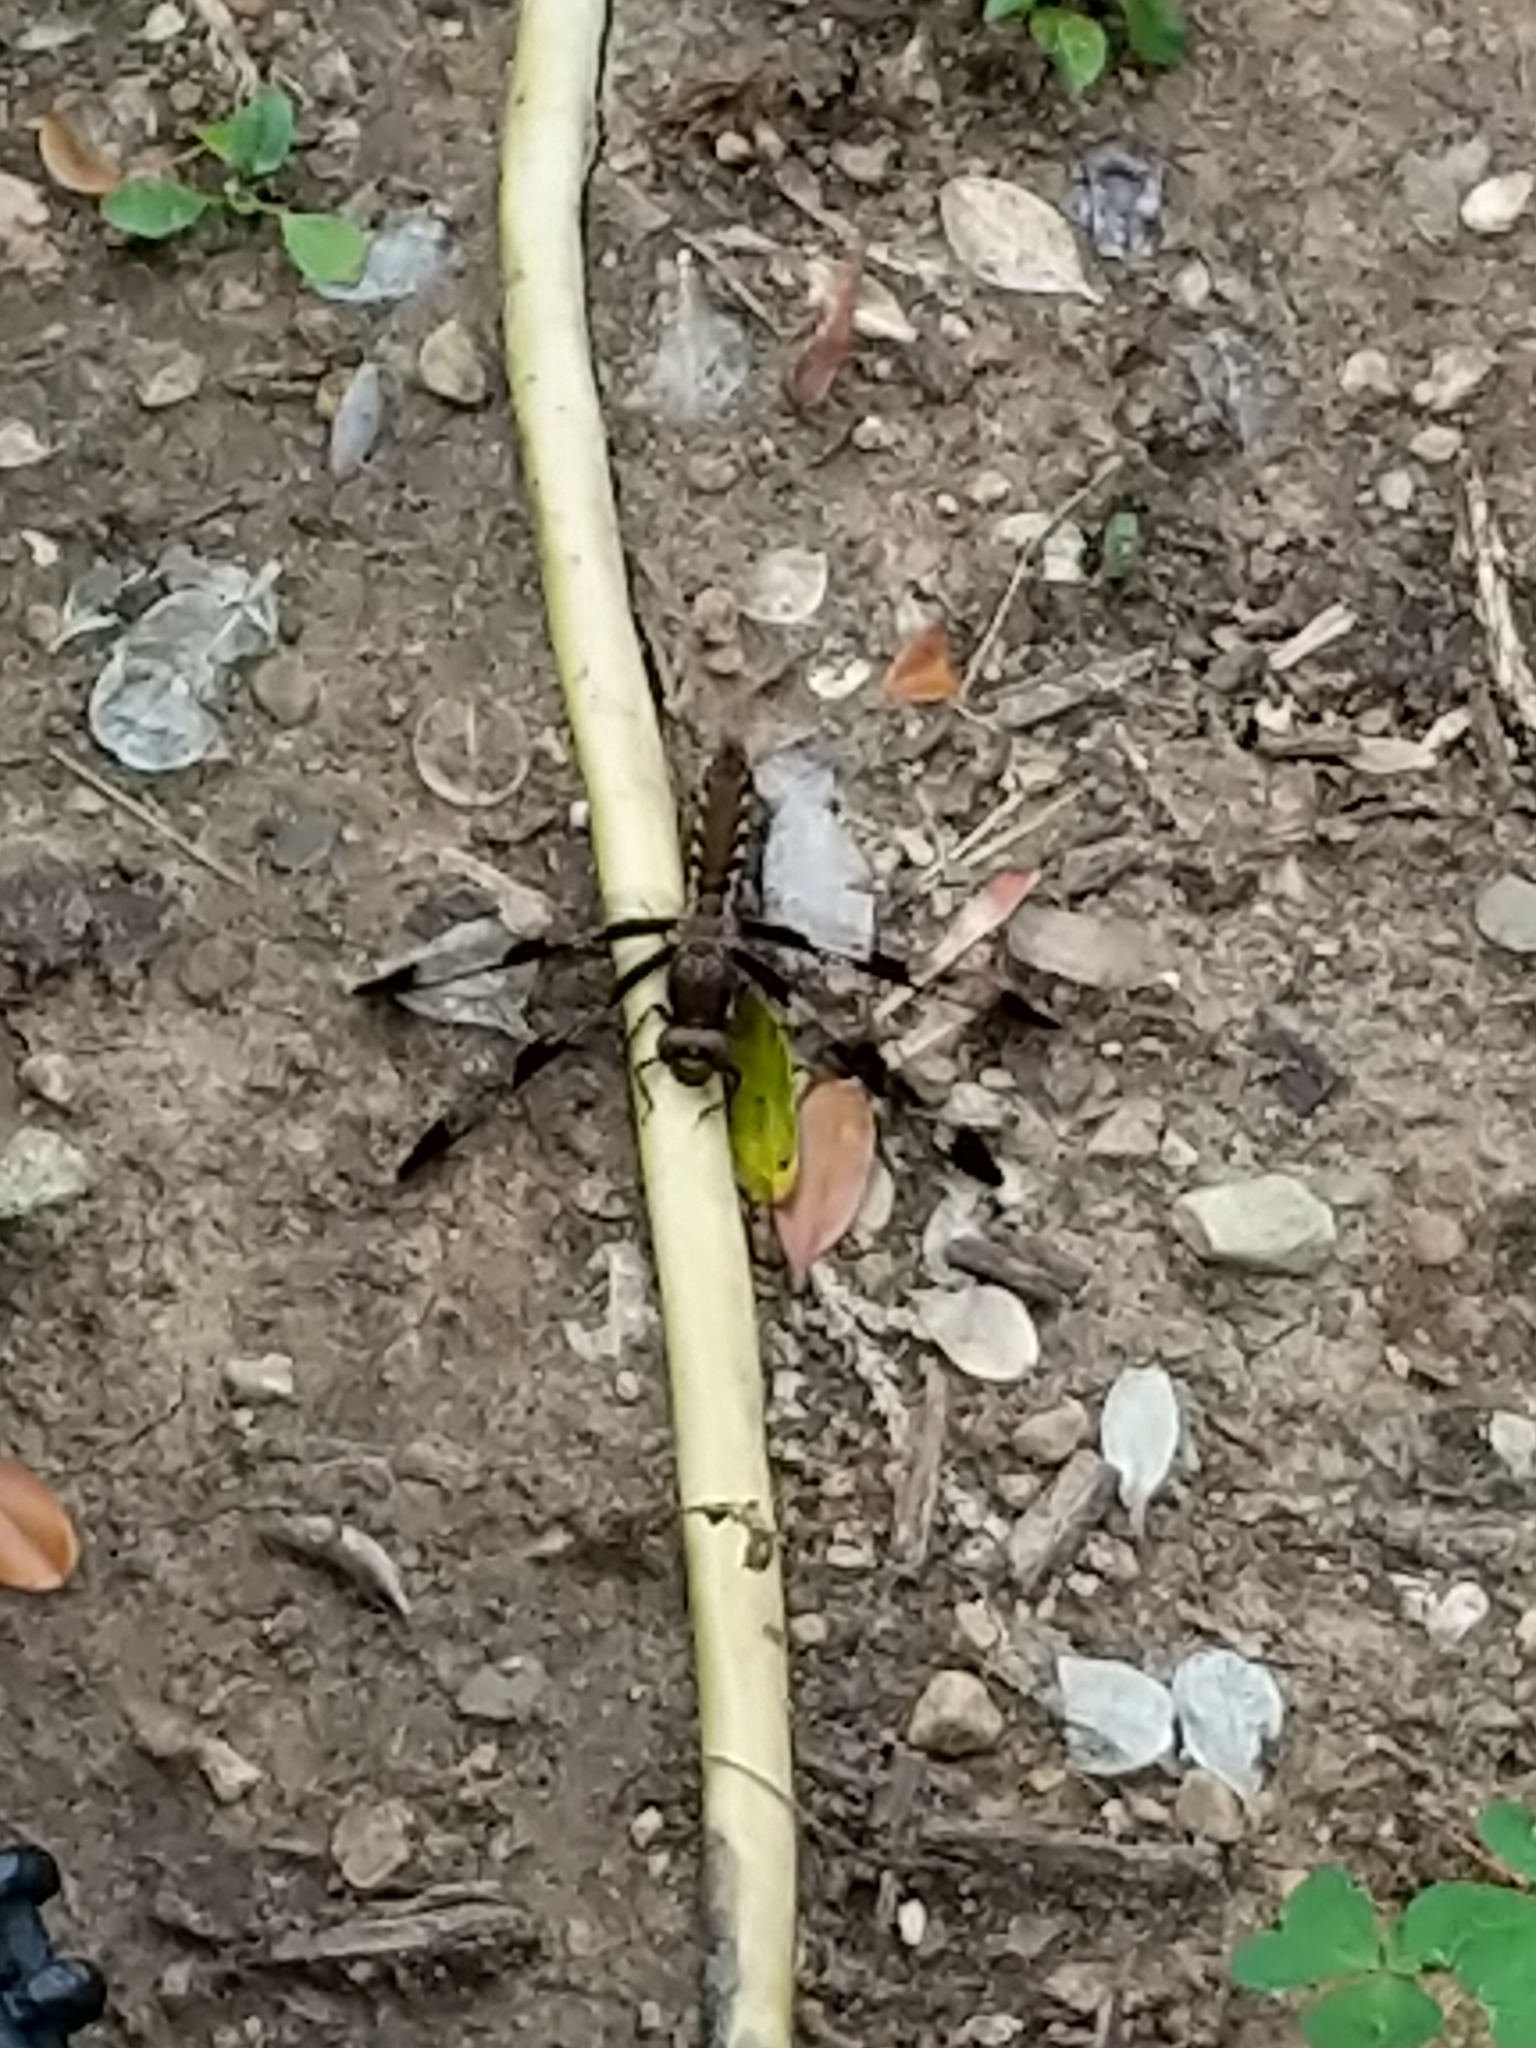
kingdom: Animalia
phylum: Arthropoda
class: Insecta
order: Odonata
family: Libellulidae
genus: Plathemis
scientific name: Plathemis lydia
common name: Common whitetail
